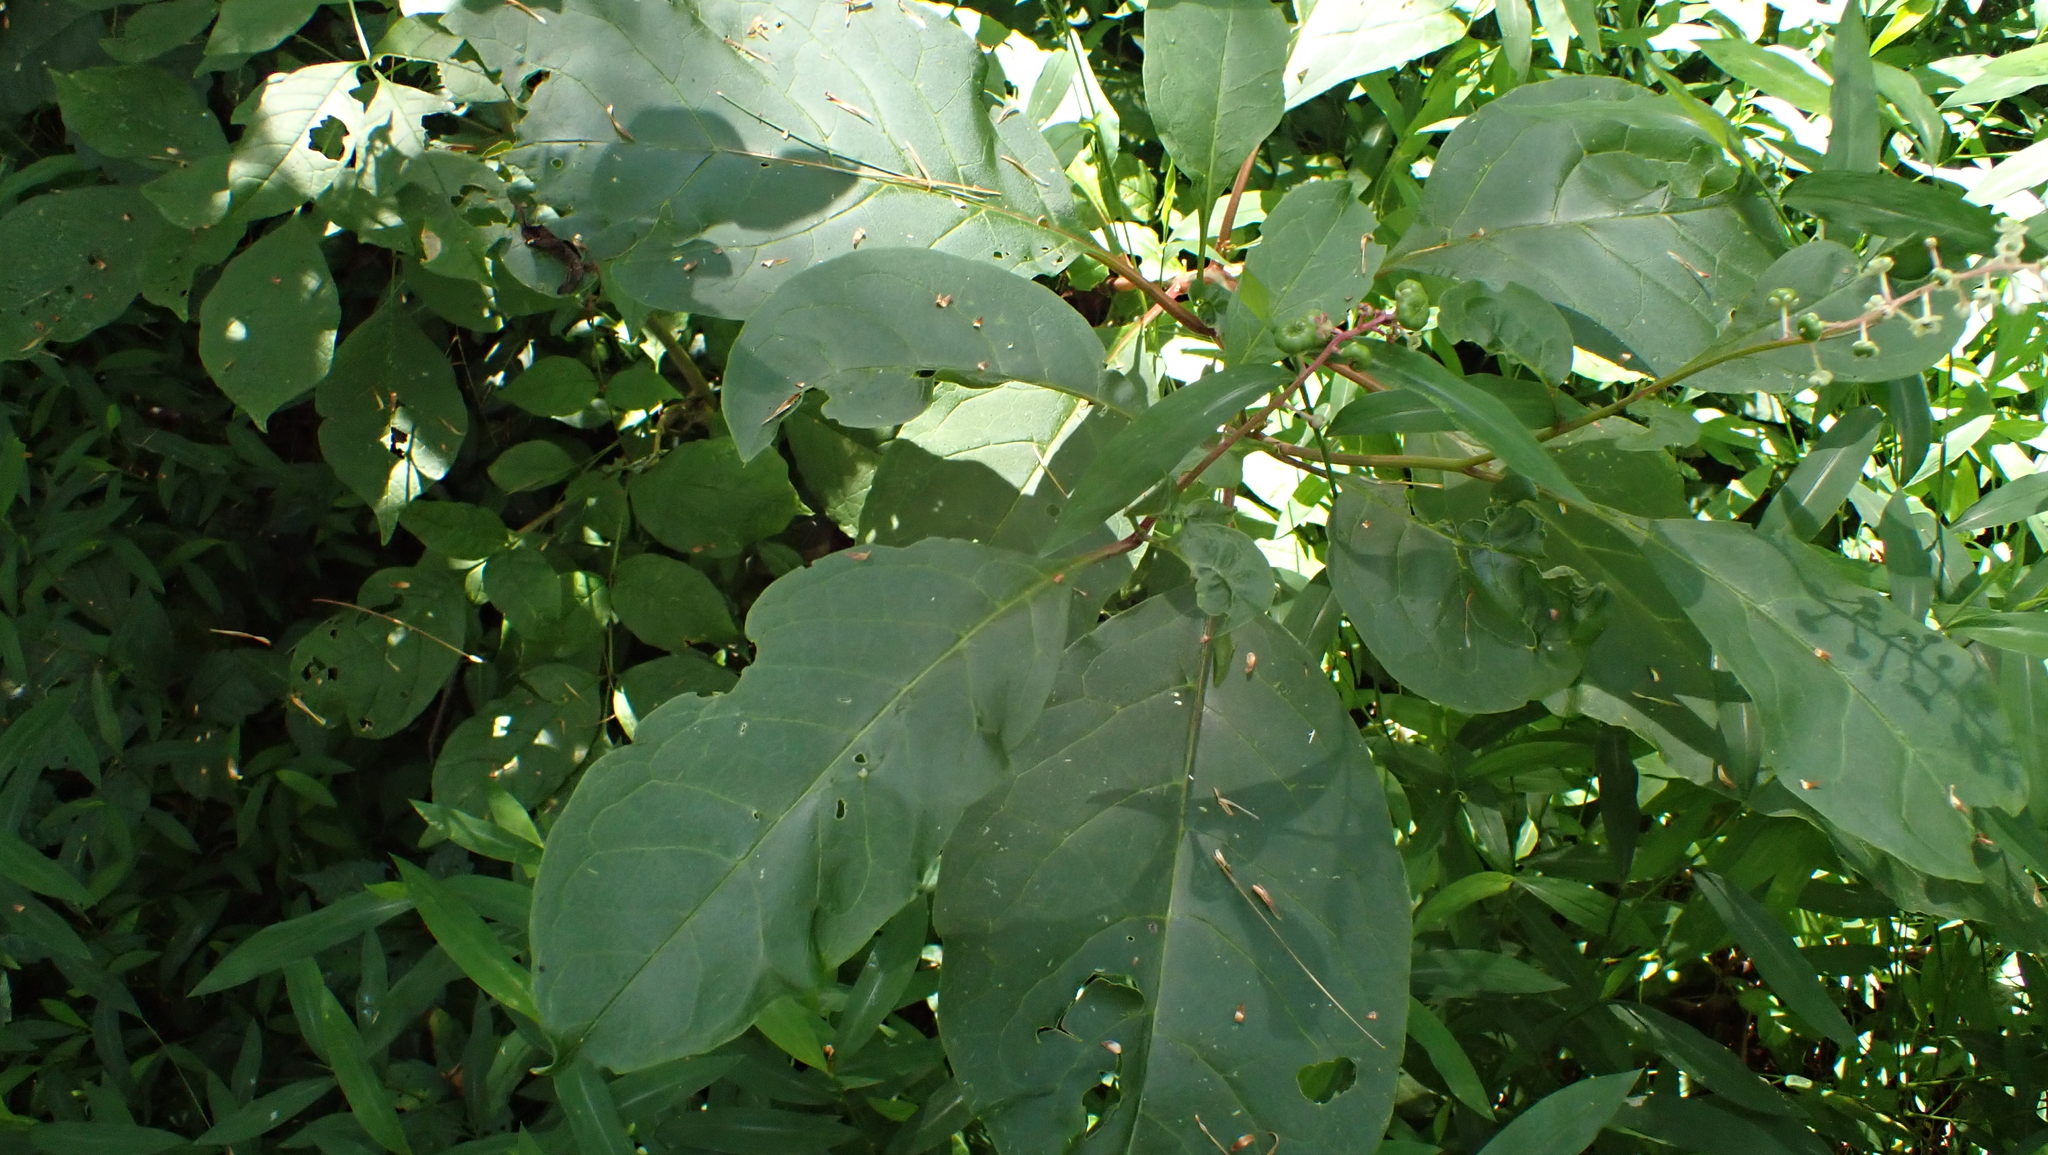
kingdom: Plantae
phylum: Tracheophyta
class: Magnoliopsida
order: Caryophyllales
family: Phytolaccaceae
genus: Phytolacca
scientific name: Phytolacca americana
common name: American pokeweed
